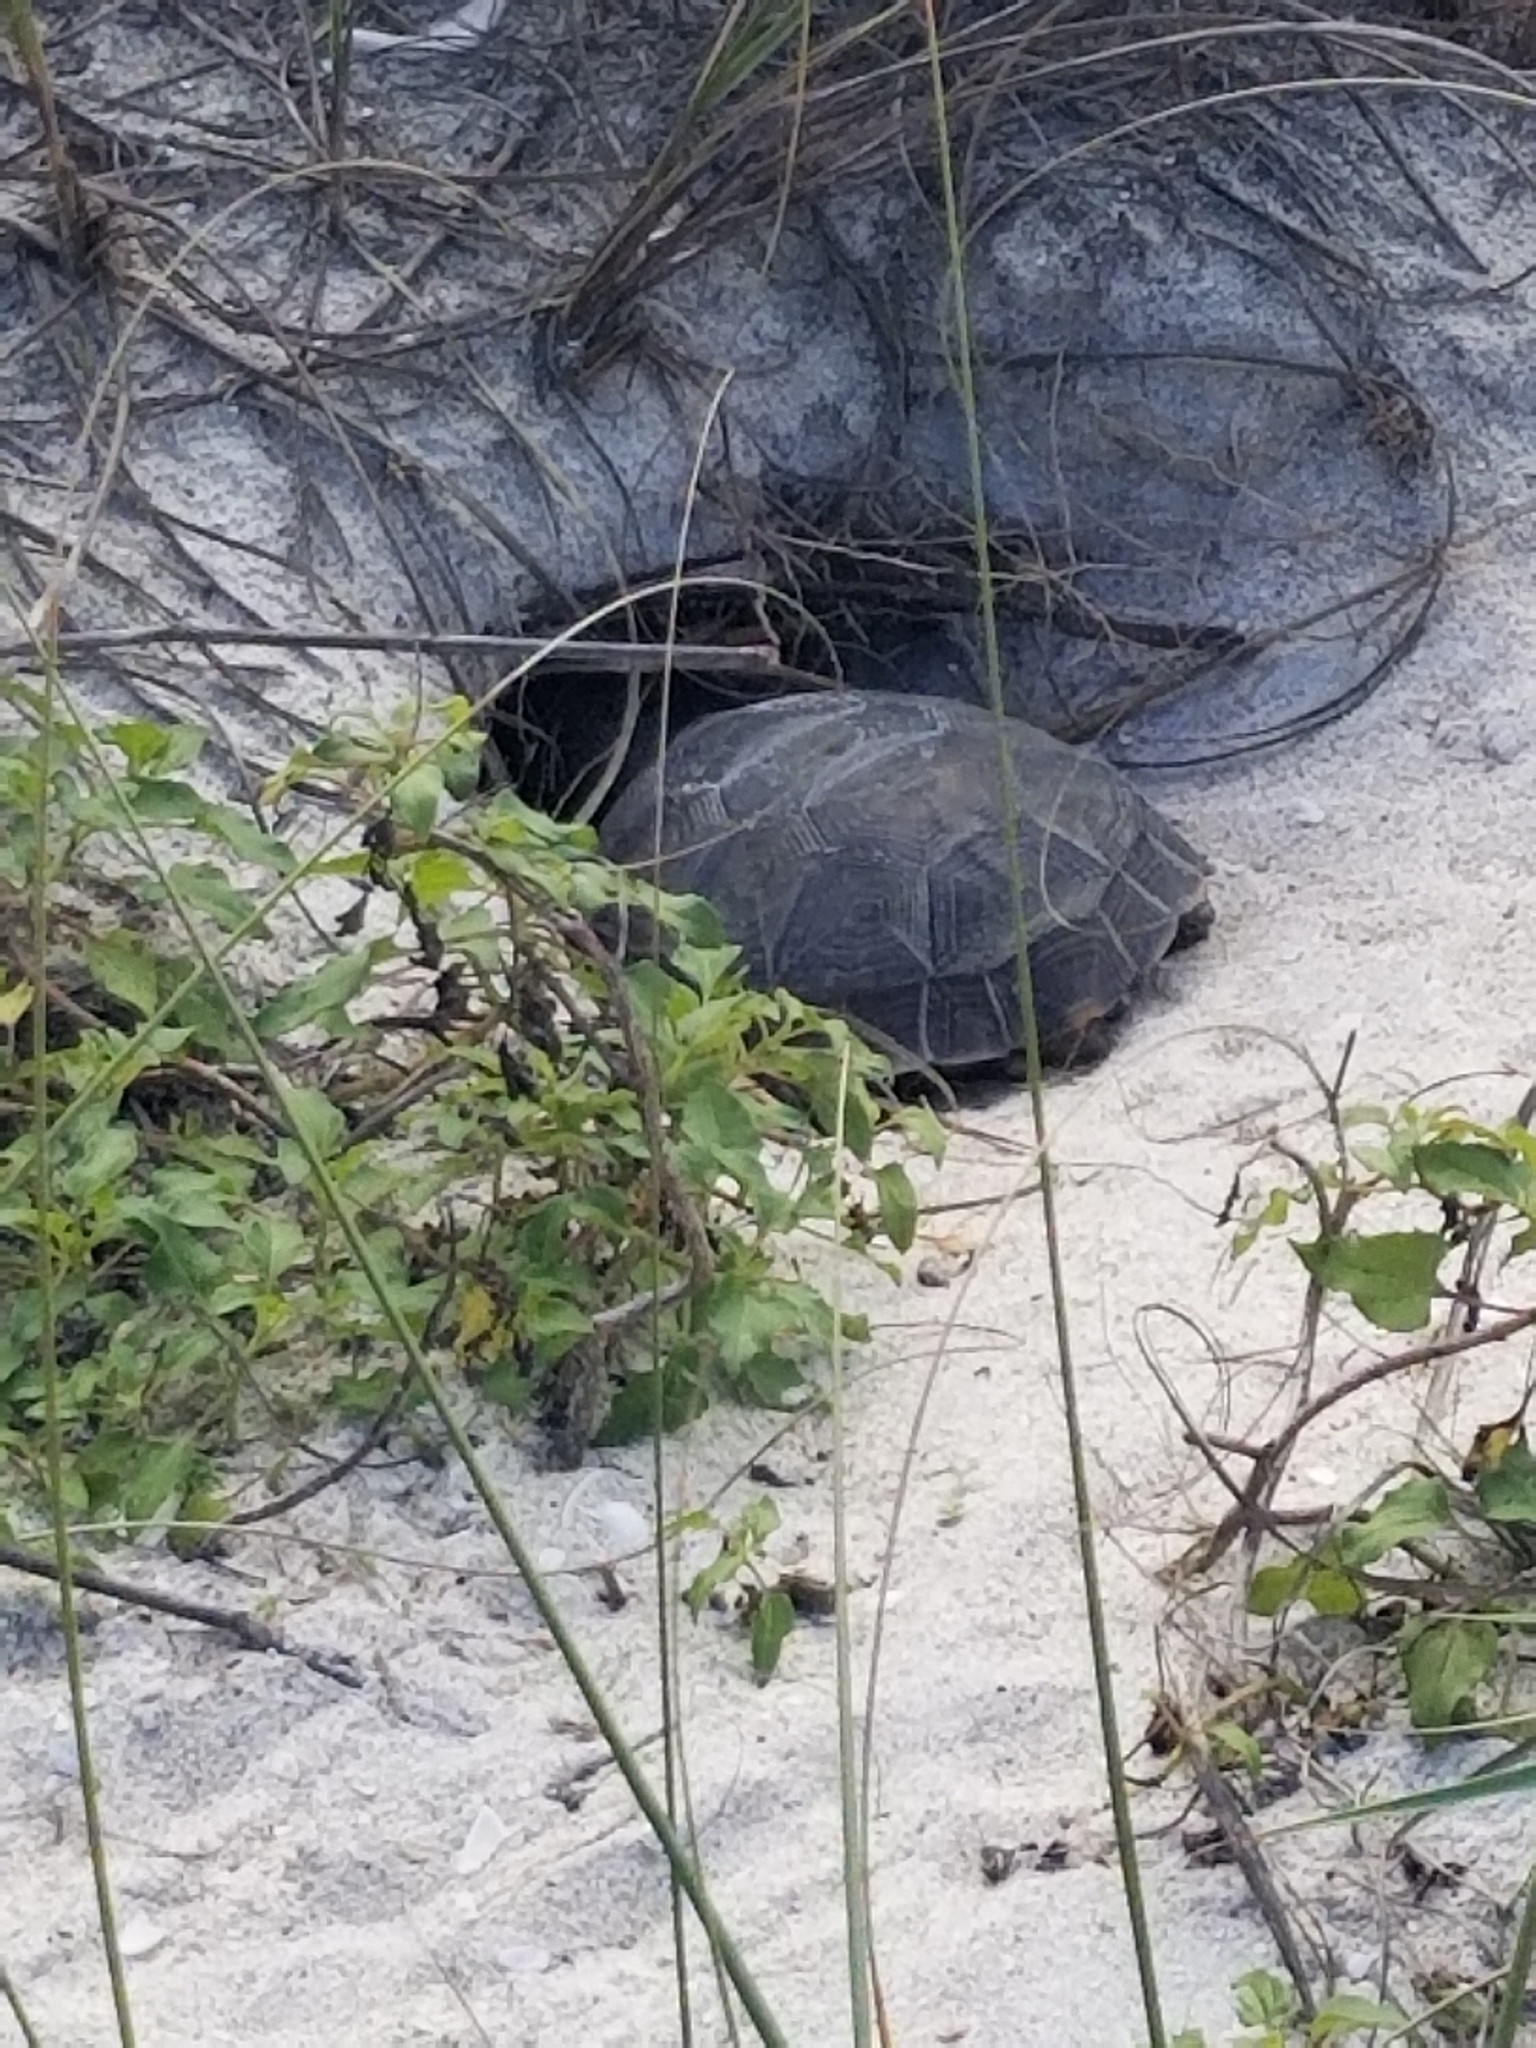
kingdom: Animalia
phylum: Chordata
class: Testudines
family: Testudinidae
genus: Gopherus
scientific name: Gopherus polyphemus
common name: Florida gopher tortoise
